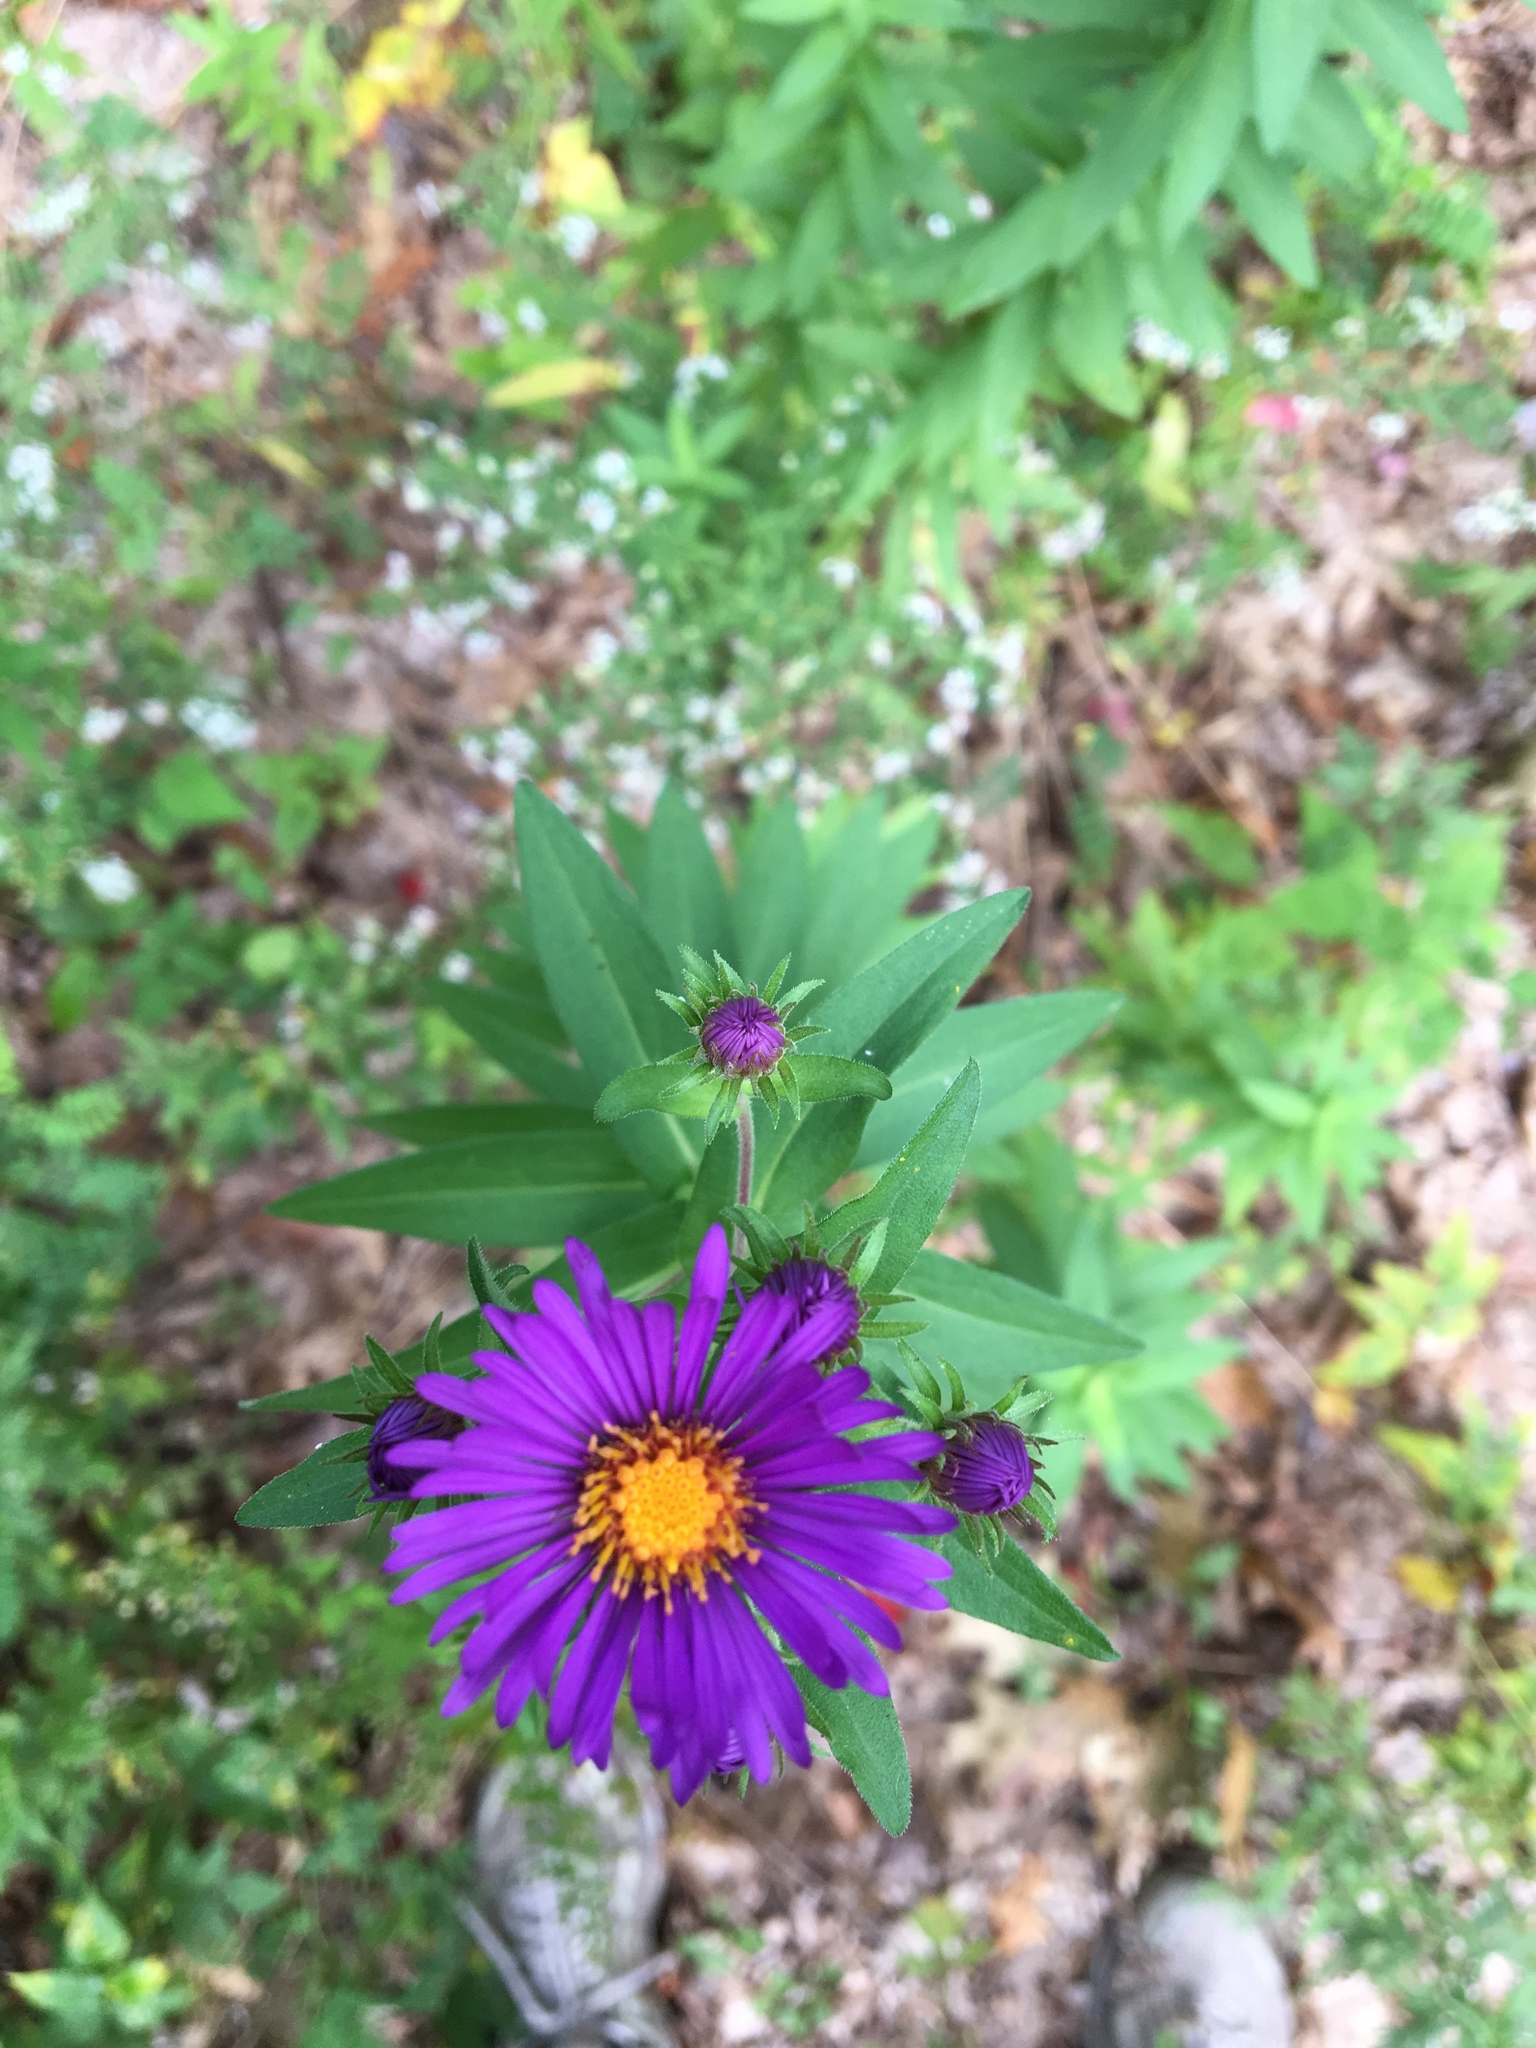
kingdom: Plantae
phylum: Tracheophyta
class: Magnoliopsida
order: Asterales
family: Asteraceae
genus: Symphyotrichum
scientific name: Symphyotrichum novae-angliae
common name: Michaelmas daisy
